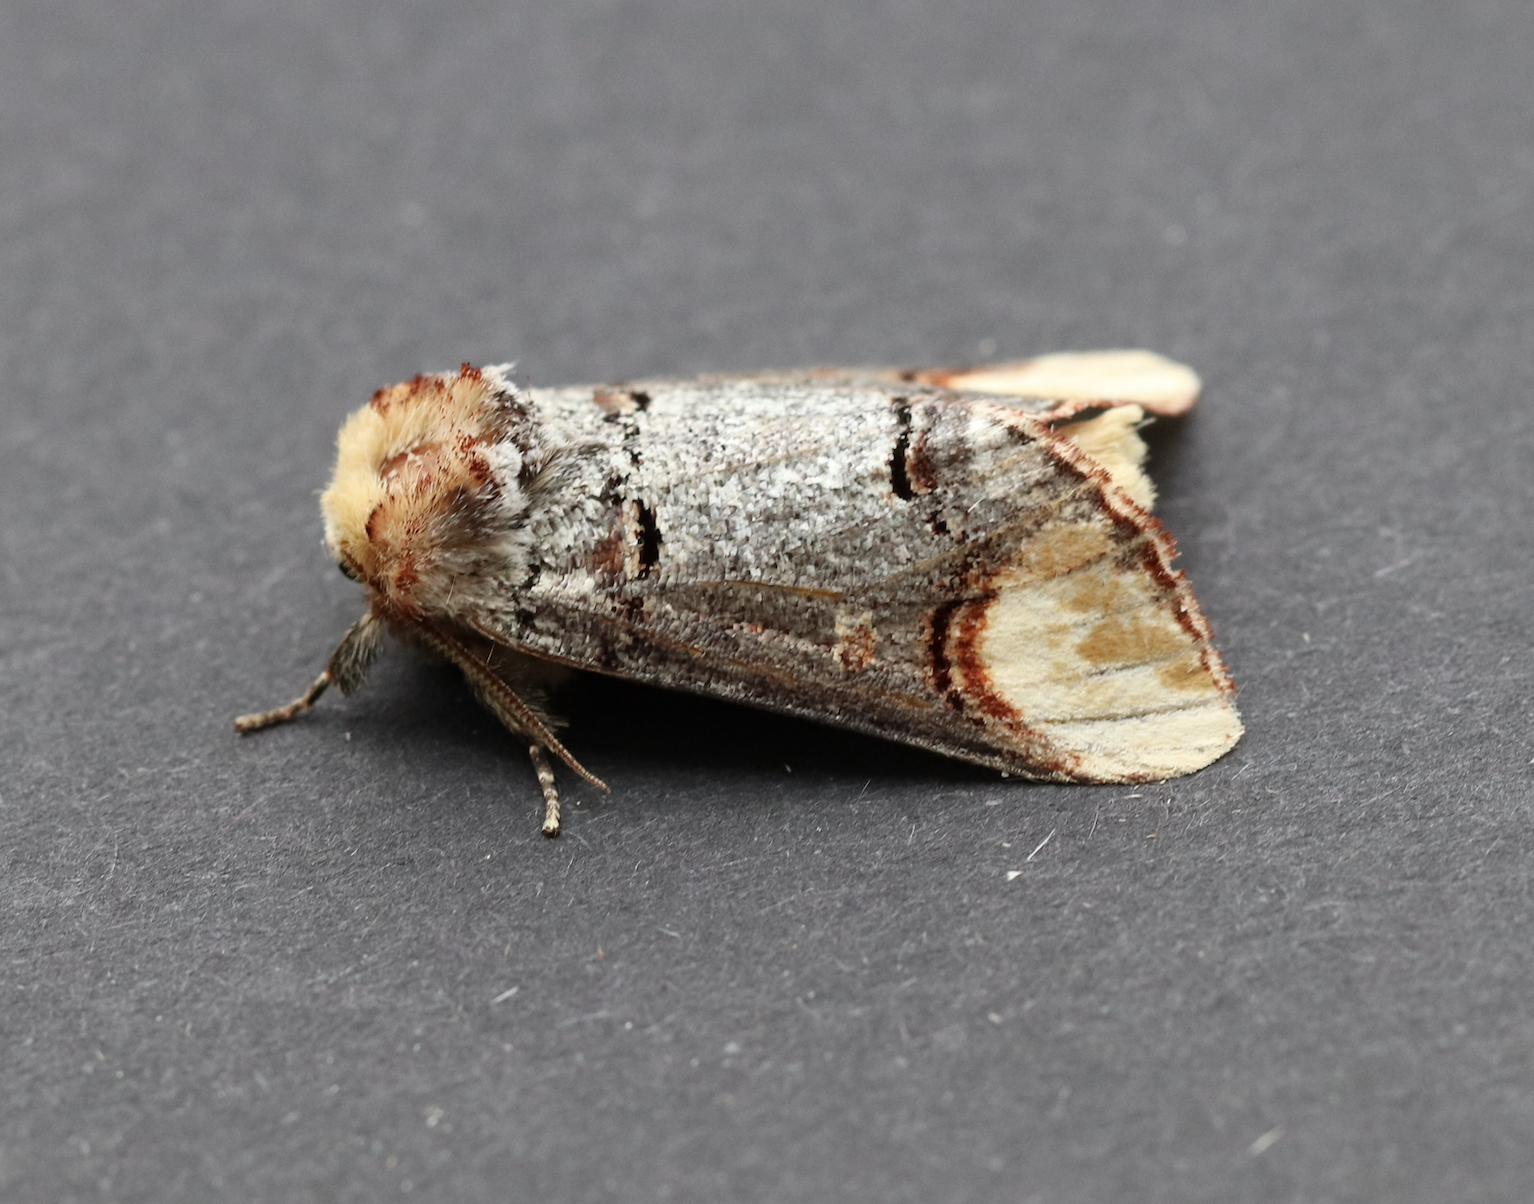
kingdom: Animalia
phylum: Arthropoda
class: Insecta
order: Lepidoptera
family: Notodontidae
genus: Phalera
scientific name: Phalera bucephala
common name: Buff-tip
